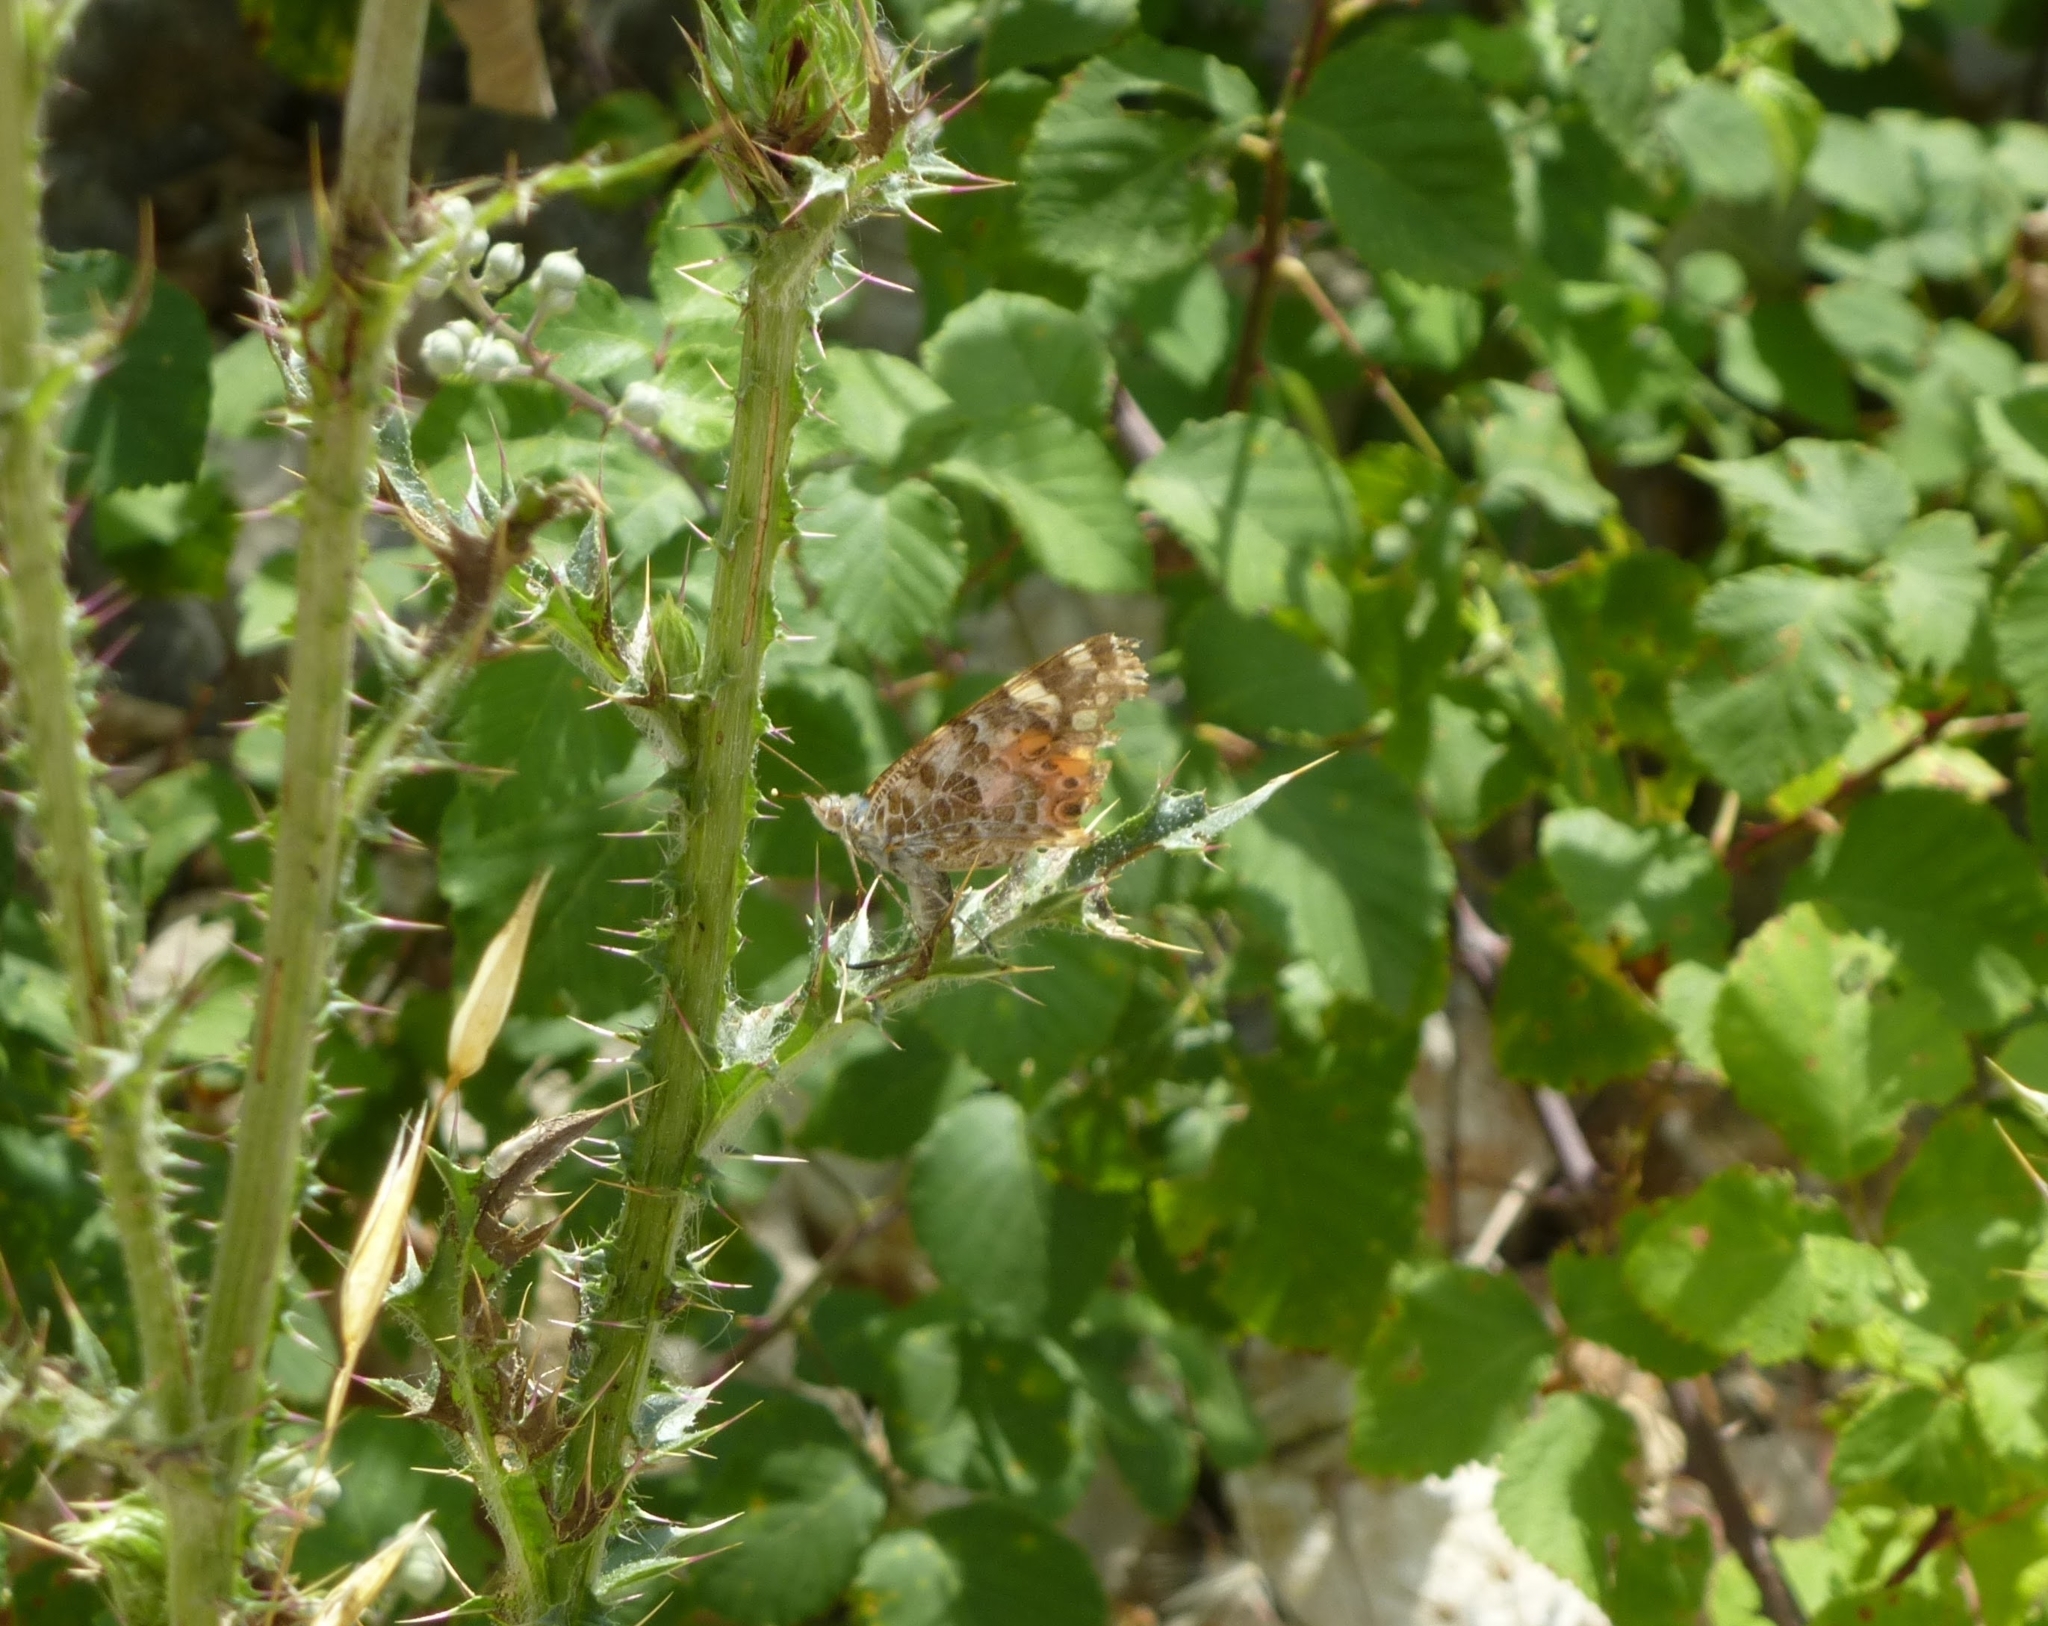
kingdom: Animalia
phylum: Arthropoda
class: Insecta
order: Lepidoptera
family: Nymphalidae
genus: Vanessa
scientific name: Vanessa cardui
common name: Painted lady
